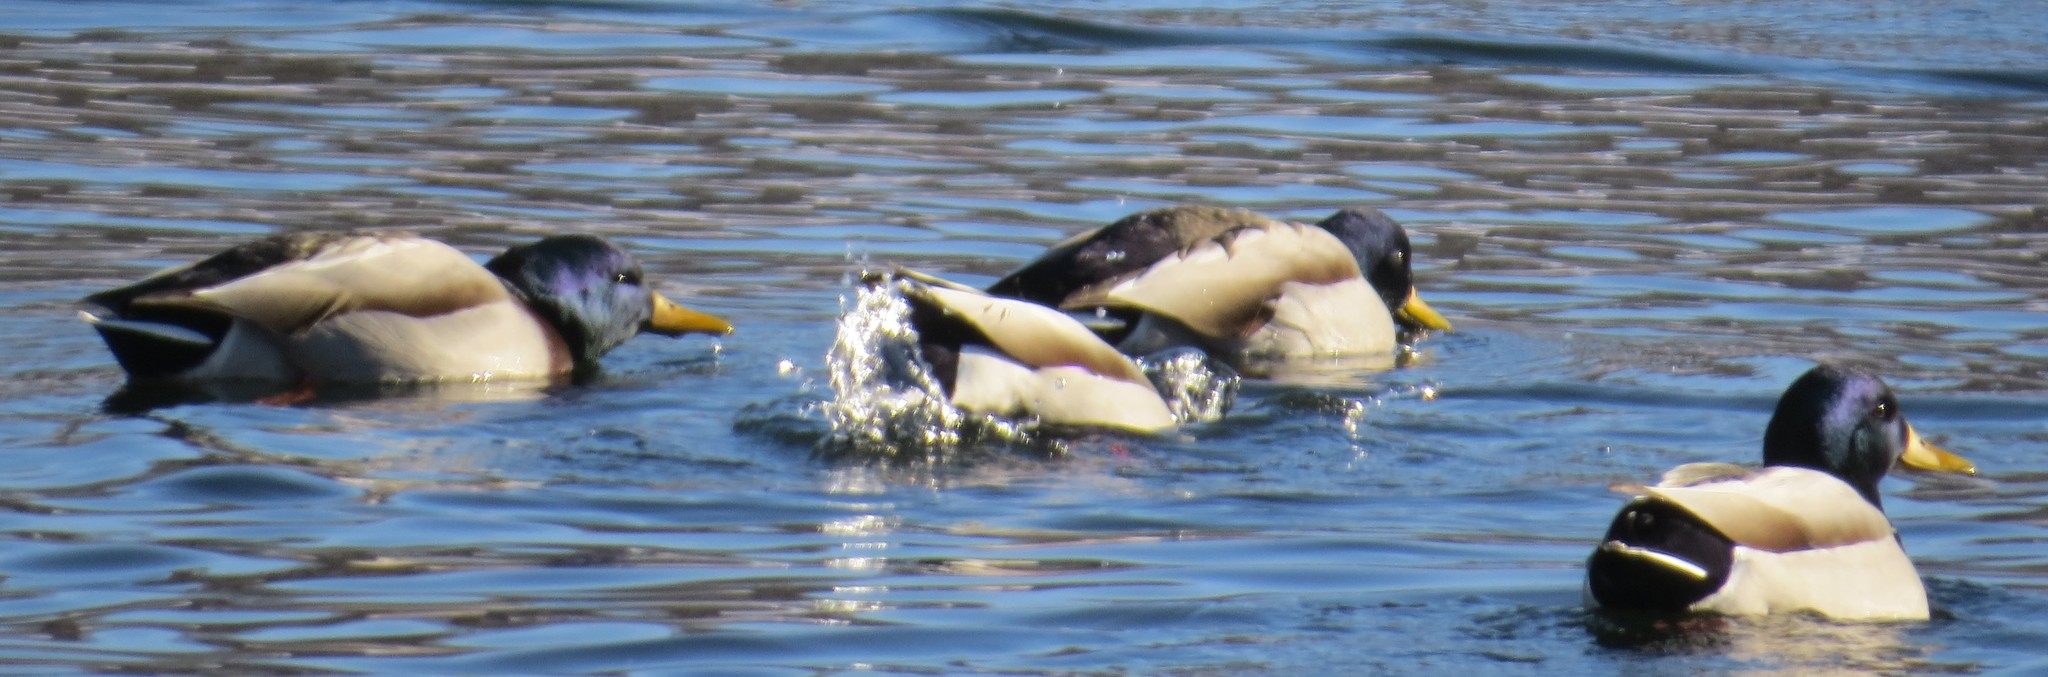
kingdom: Animalia
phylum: Chordata
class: Aves
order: Anseriformes
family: Anatidae
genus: Anas
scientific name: Anas platyrhynchos
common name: Mallard
